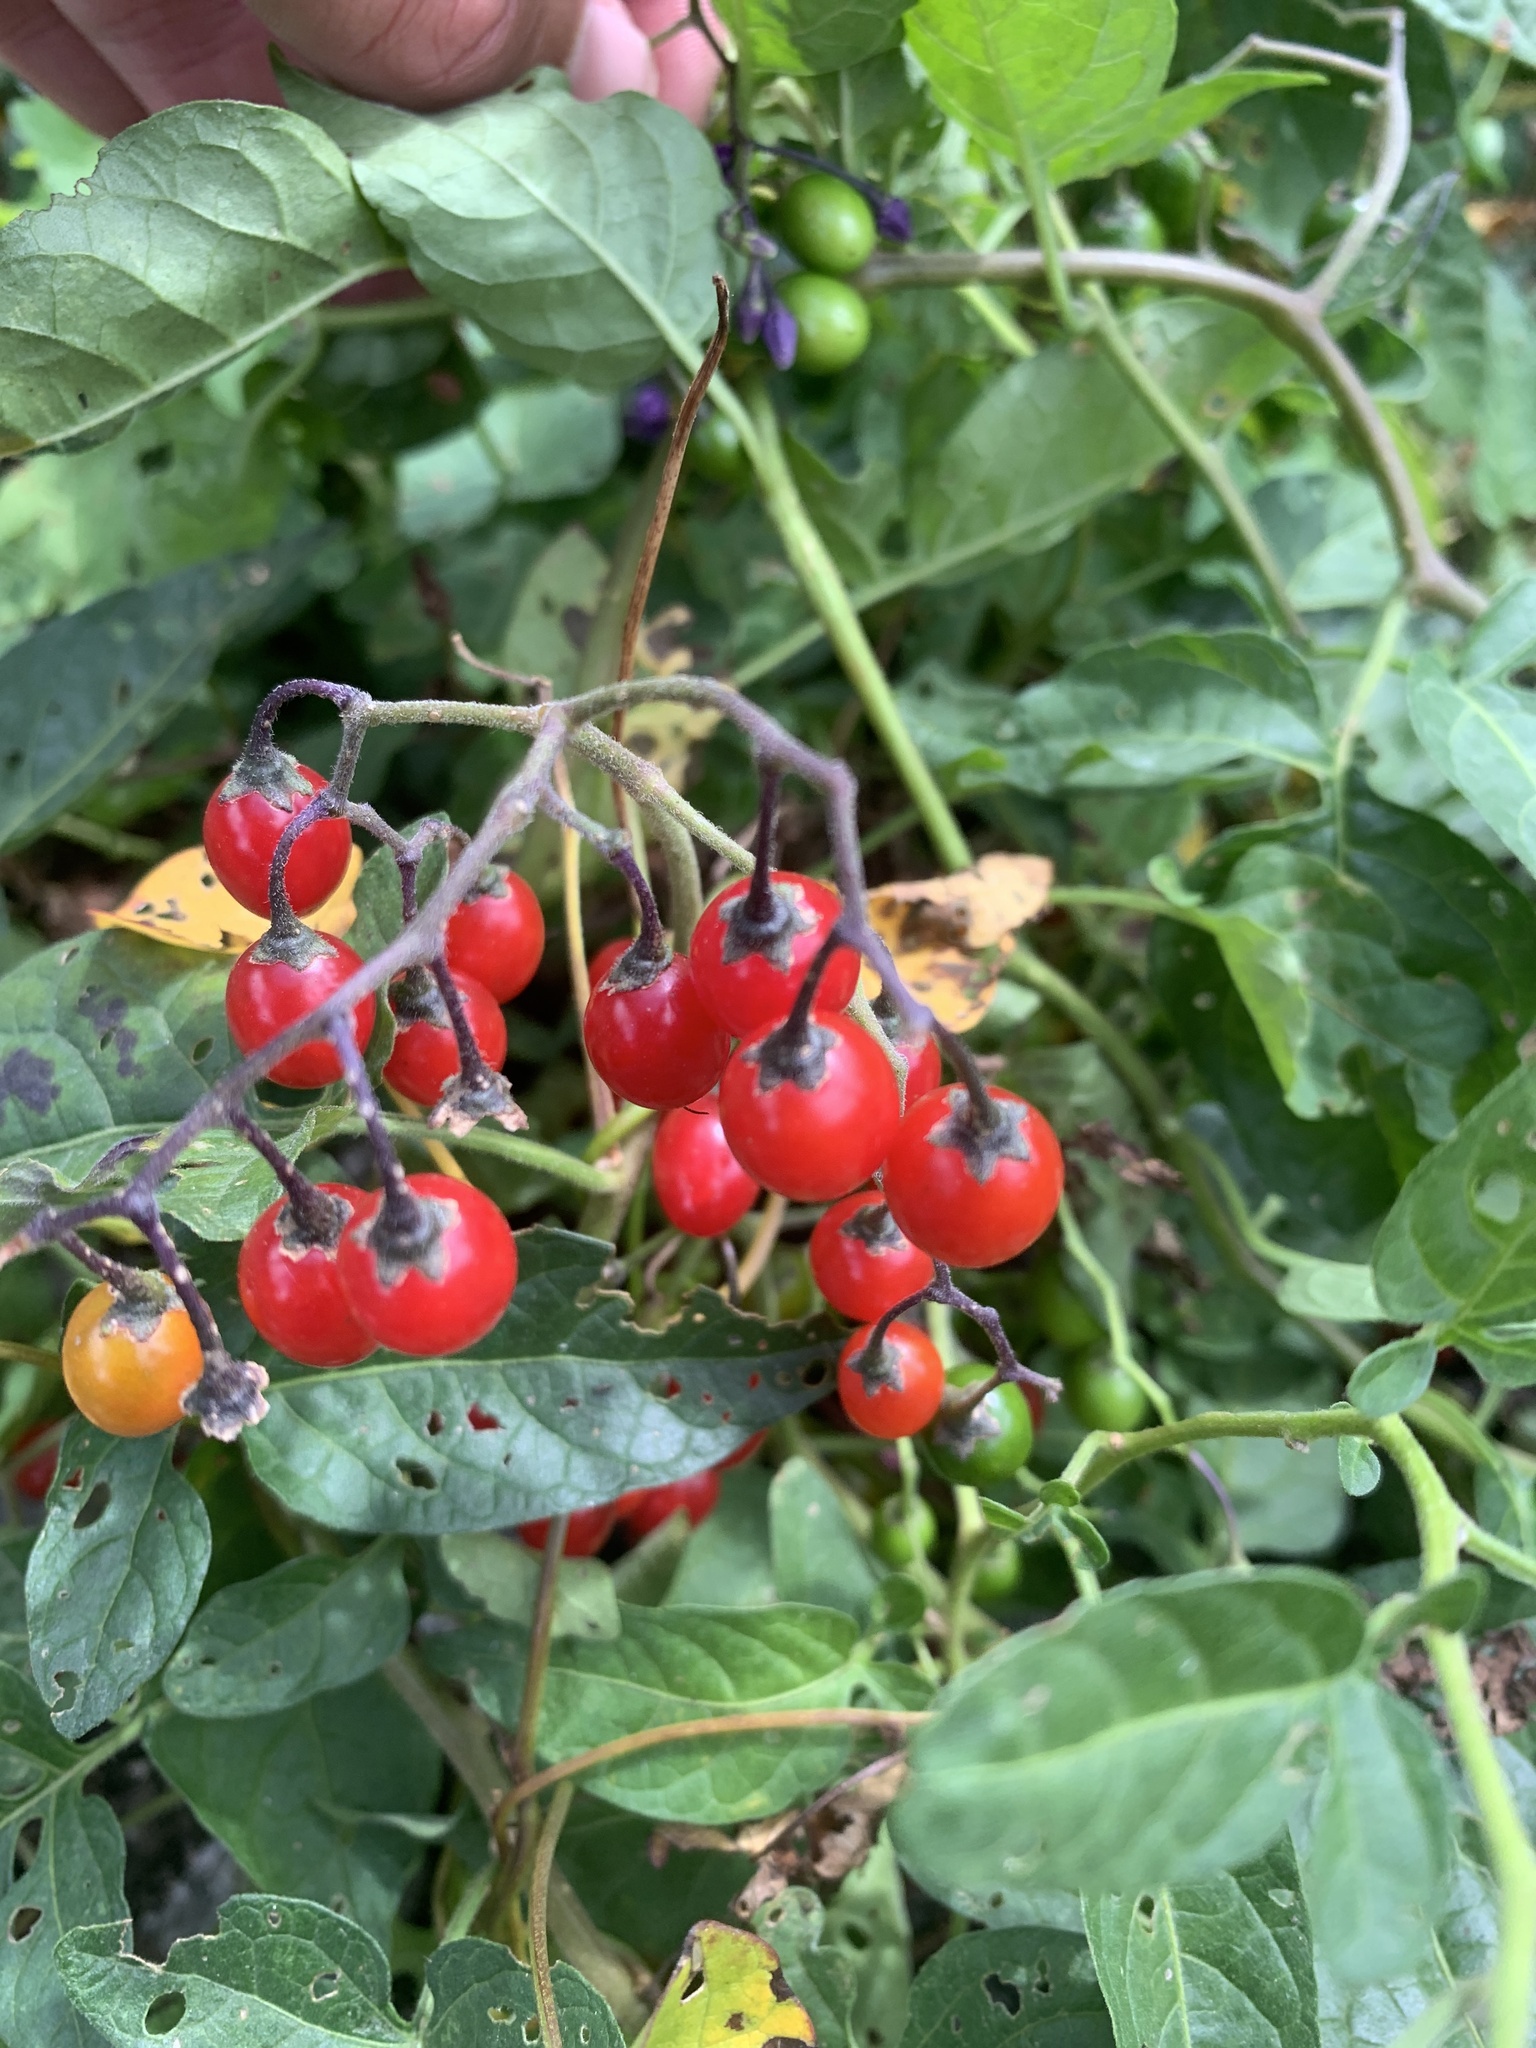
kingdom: Plantae
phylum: Tracheophyta
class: Magnoliopsida
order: Solanales
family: Solanaceae
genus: Solanum
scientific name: Solanum dulcamara
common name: Climbing nightshade
